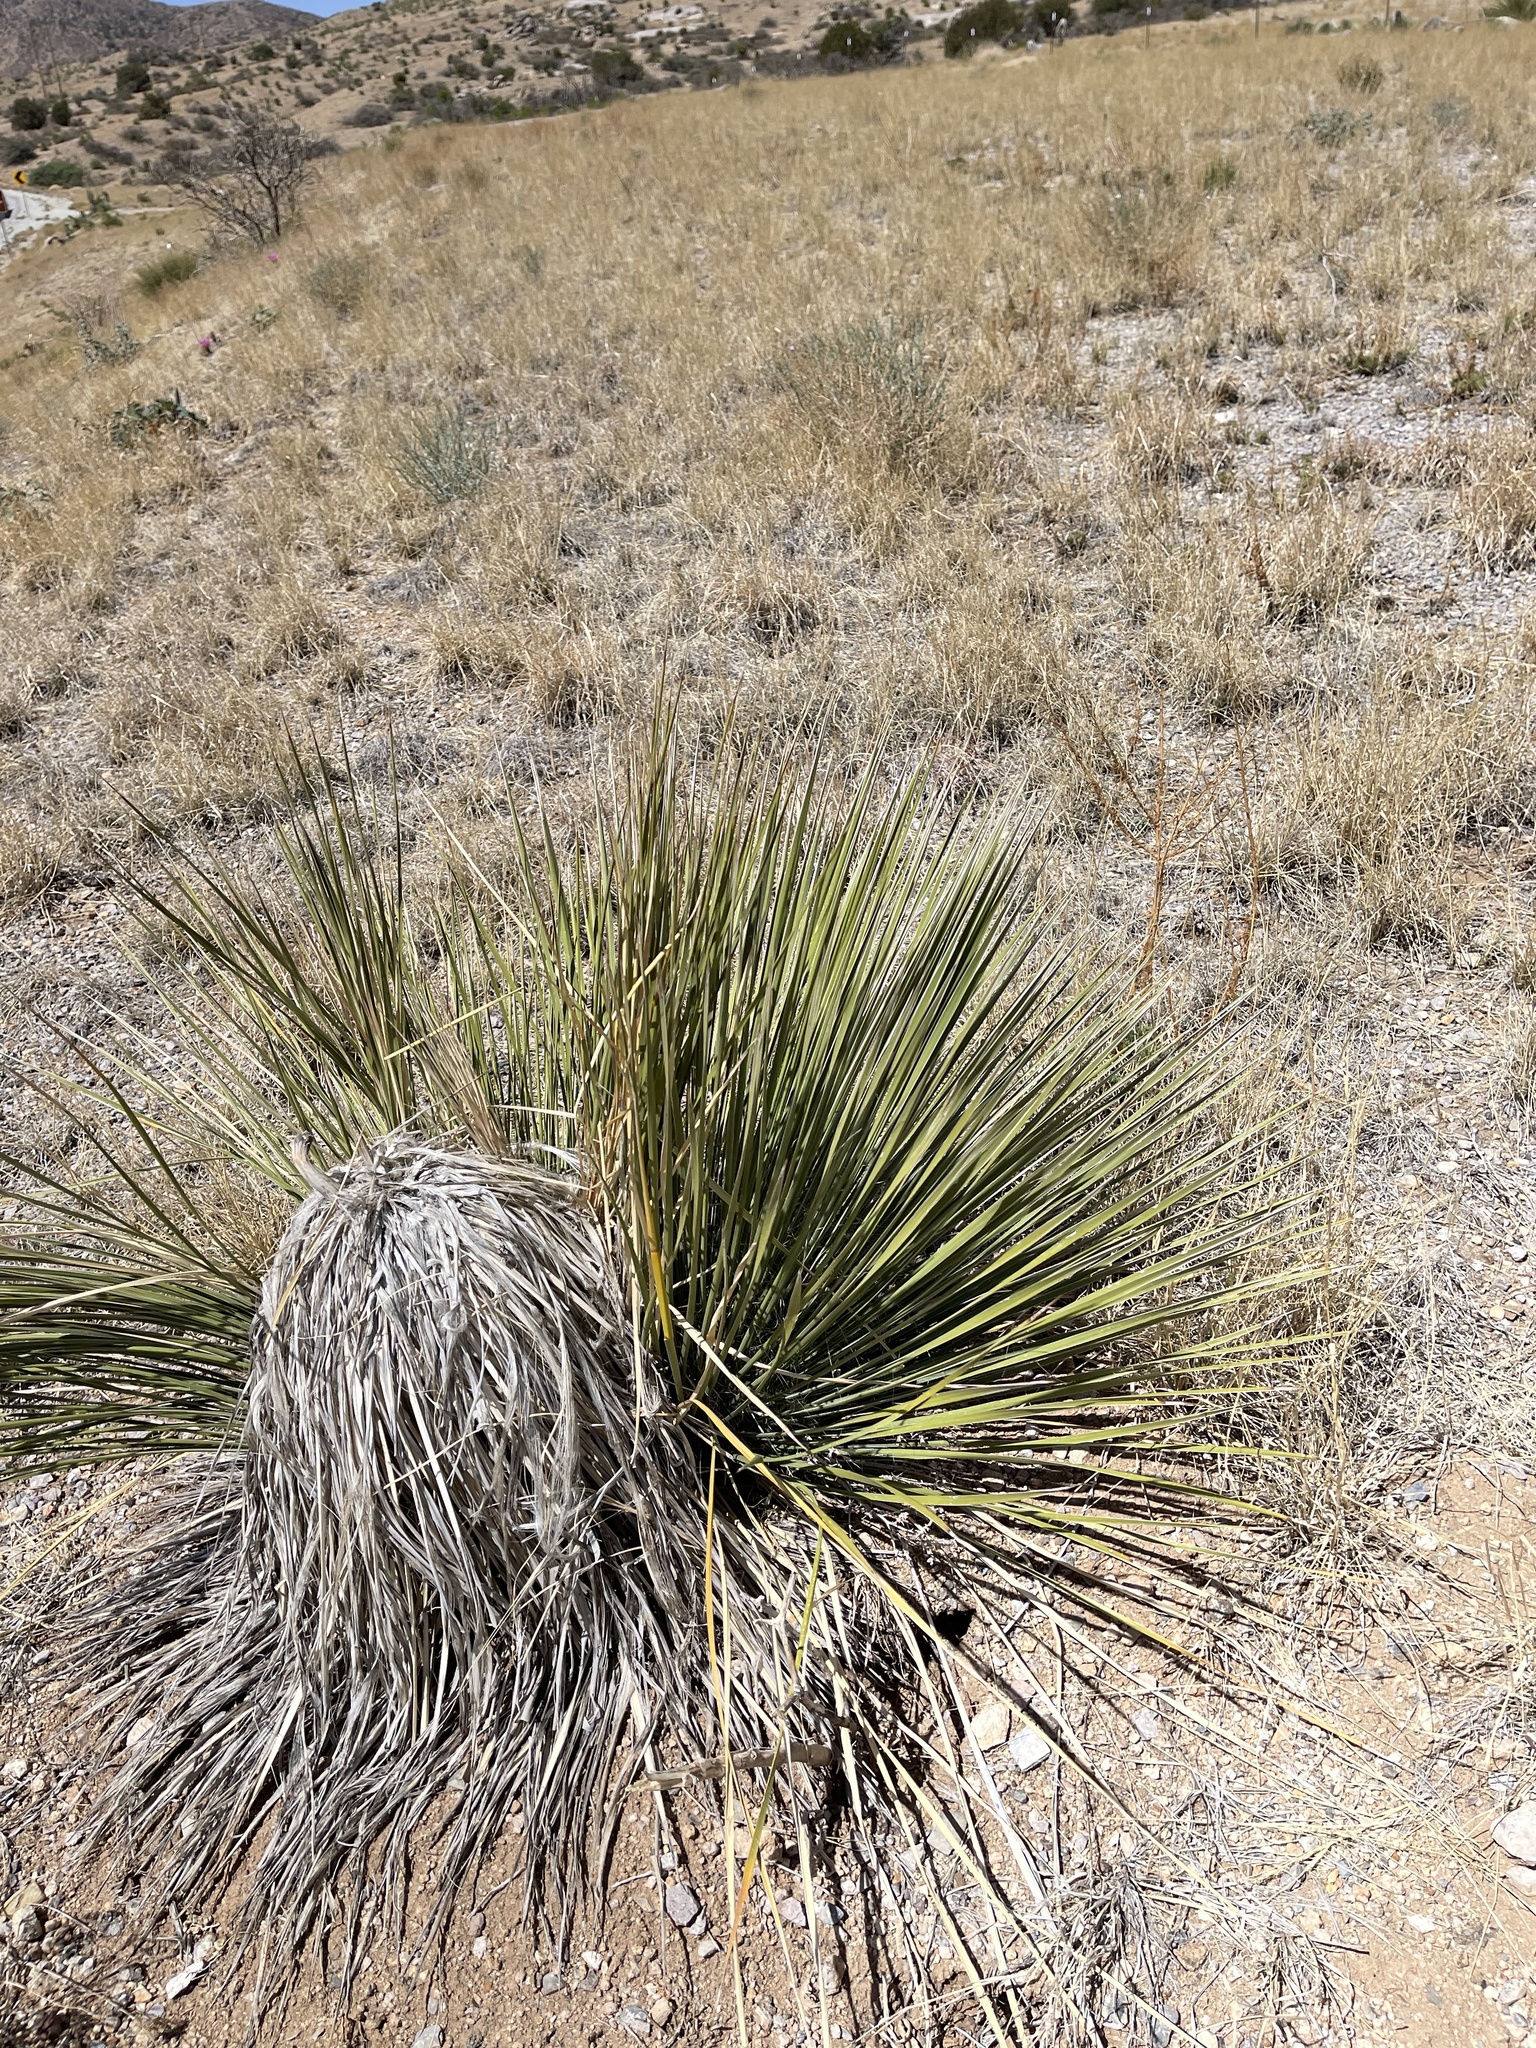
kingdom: Plantae
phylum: Tracheophyta
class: Liliopsida
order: Asparagales
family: Asparagaceae
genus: Yucca
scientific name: Yucca elata
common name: Palmella
